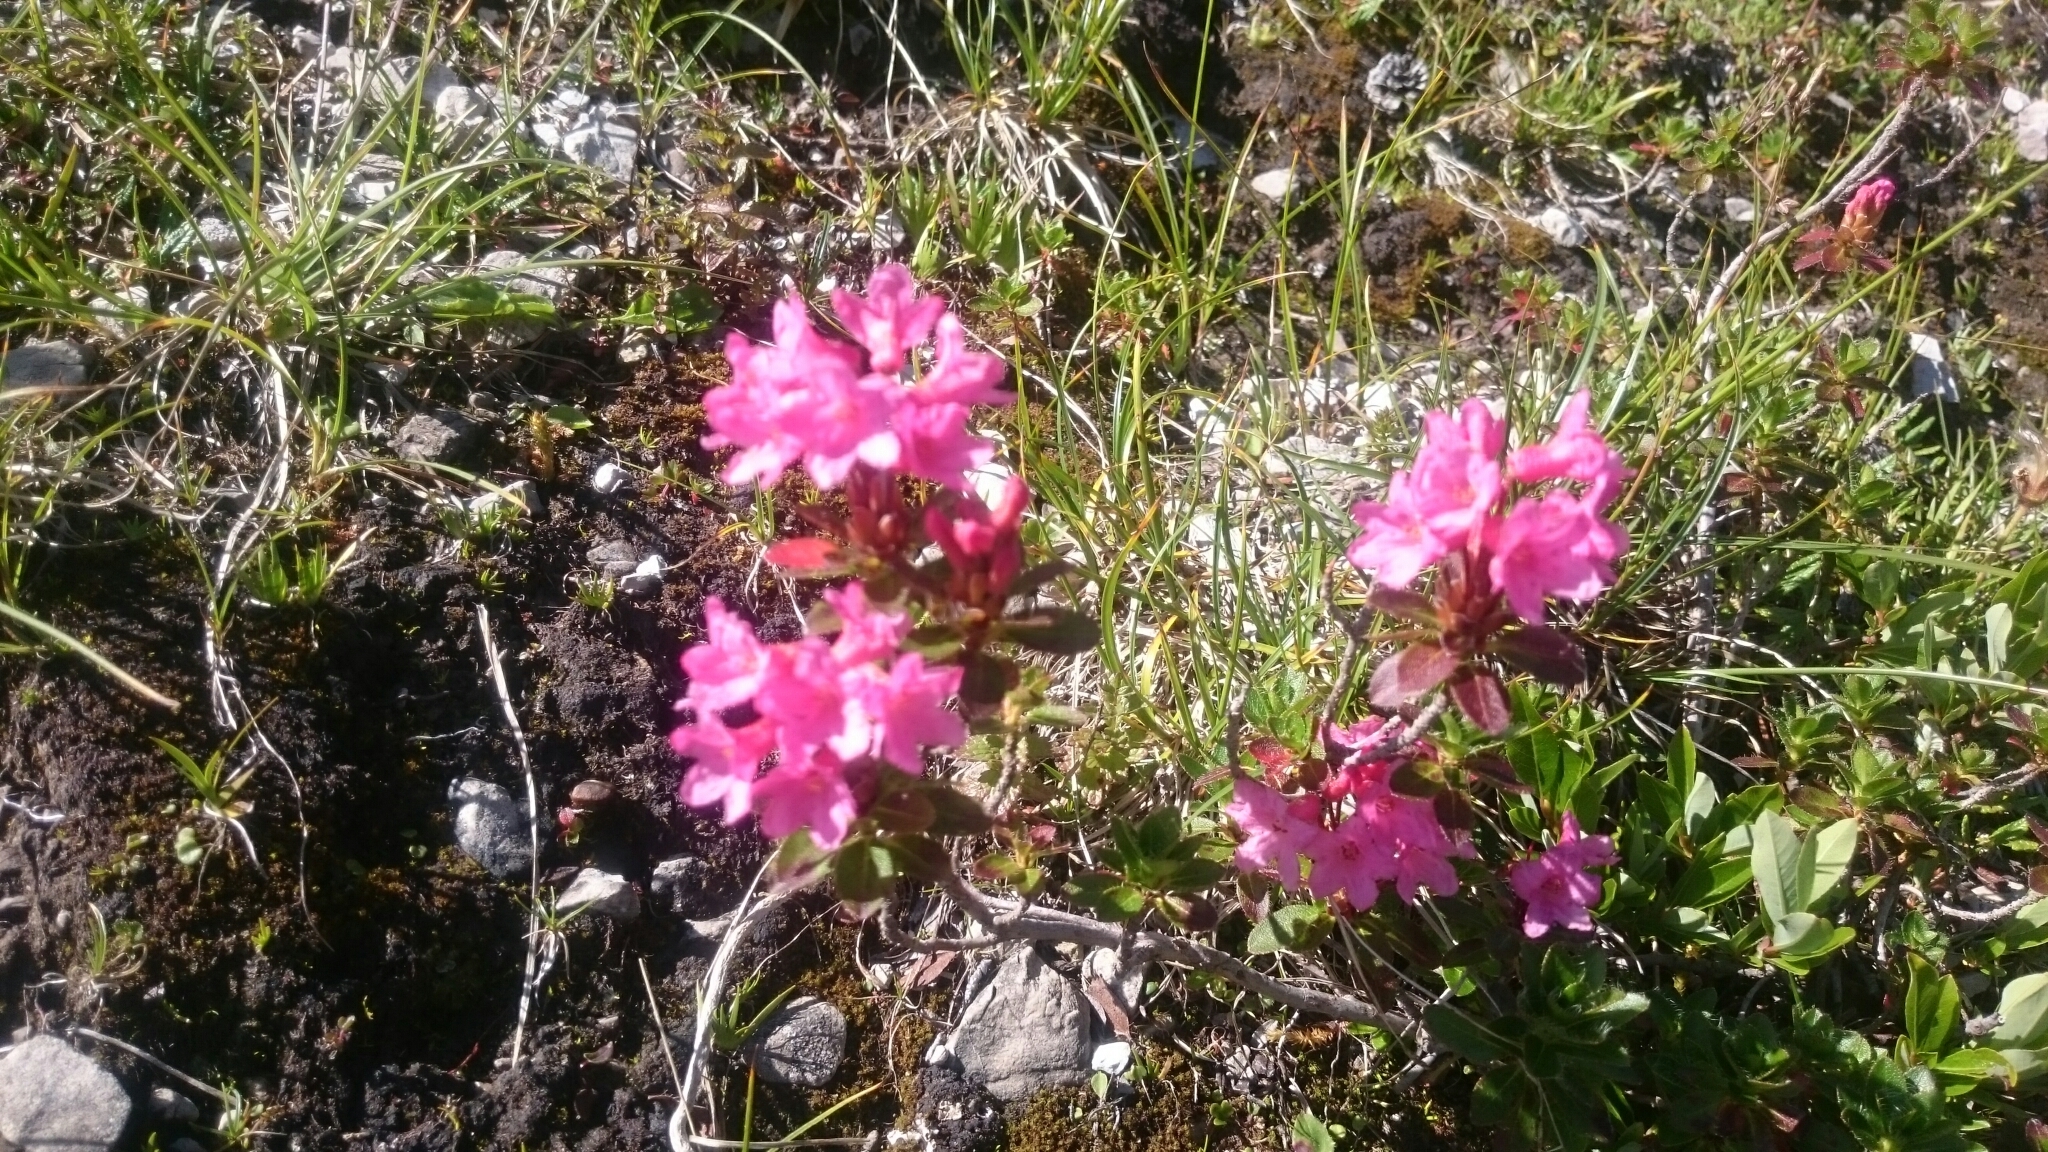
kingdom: Plantae
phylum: Tracheophyta
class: Magnoliopsida
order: Ericales
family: Ericaceae
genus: Rhododendron
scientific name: Rhododendron ferrugineum
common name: Alpenrose
